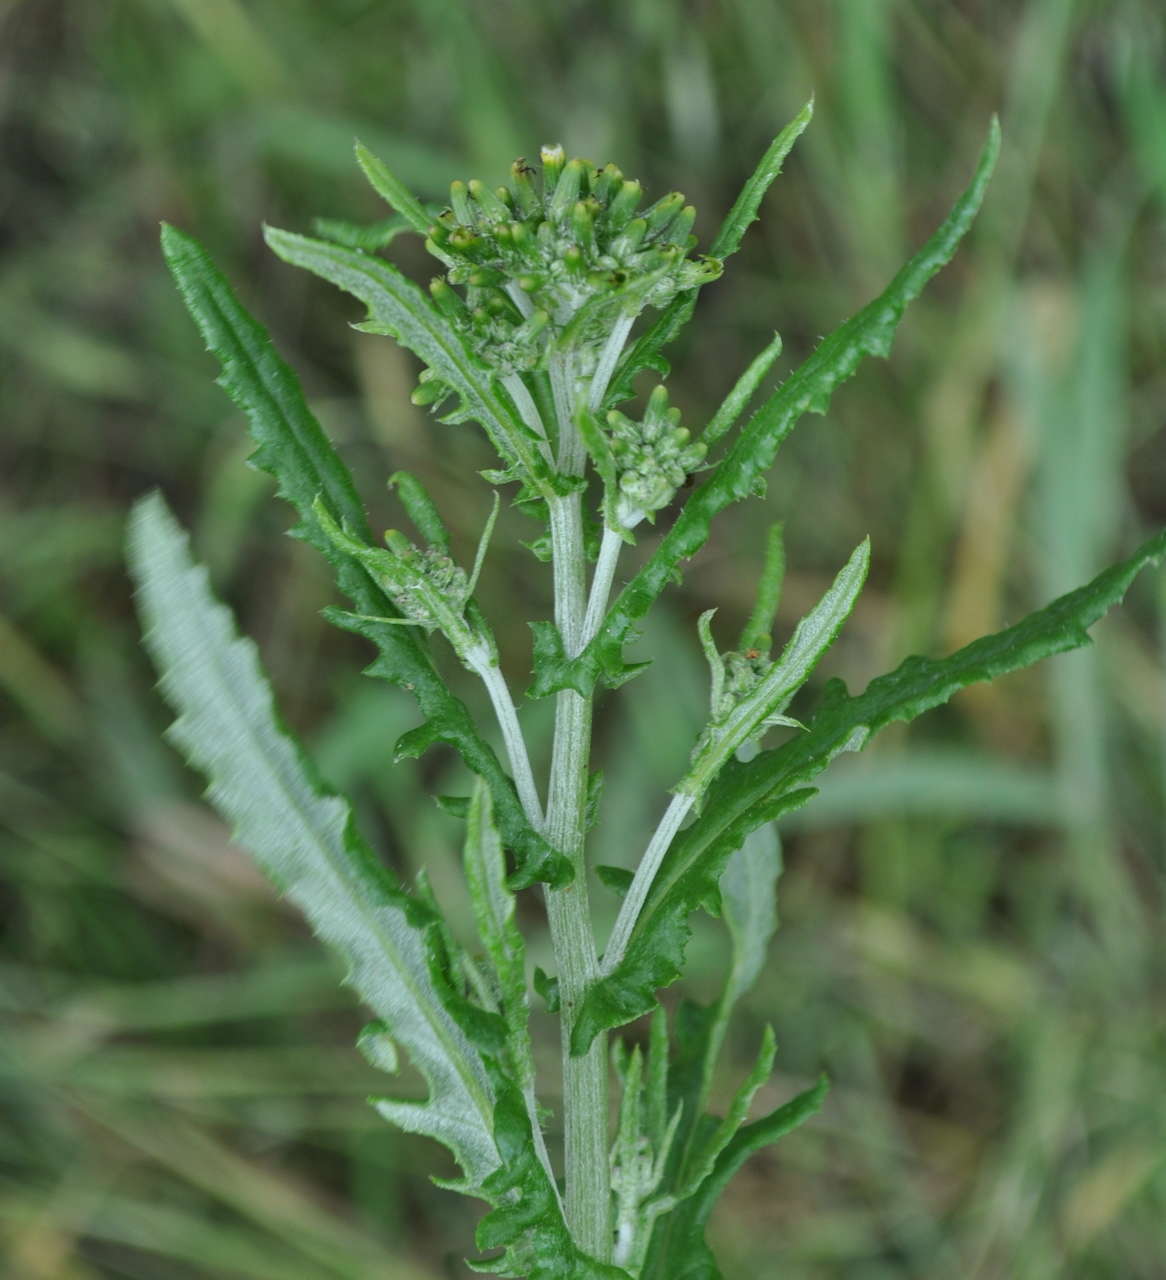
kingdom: Plantae
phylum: Tracheophyta
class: Magnoliopsida
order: Asterales
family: Asteraceae
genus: Senecio
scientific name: Senecio glomeratus
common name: Cutleaf burnweed
